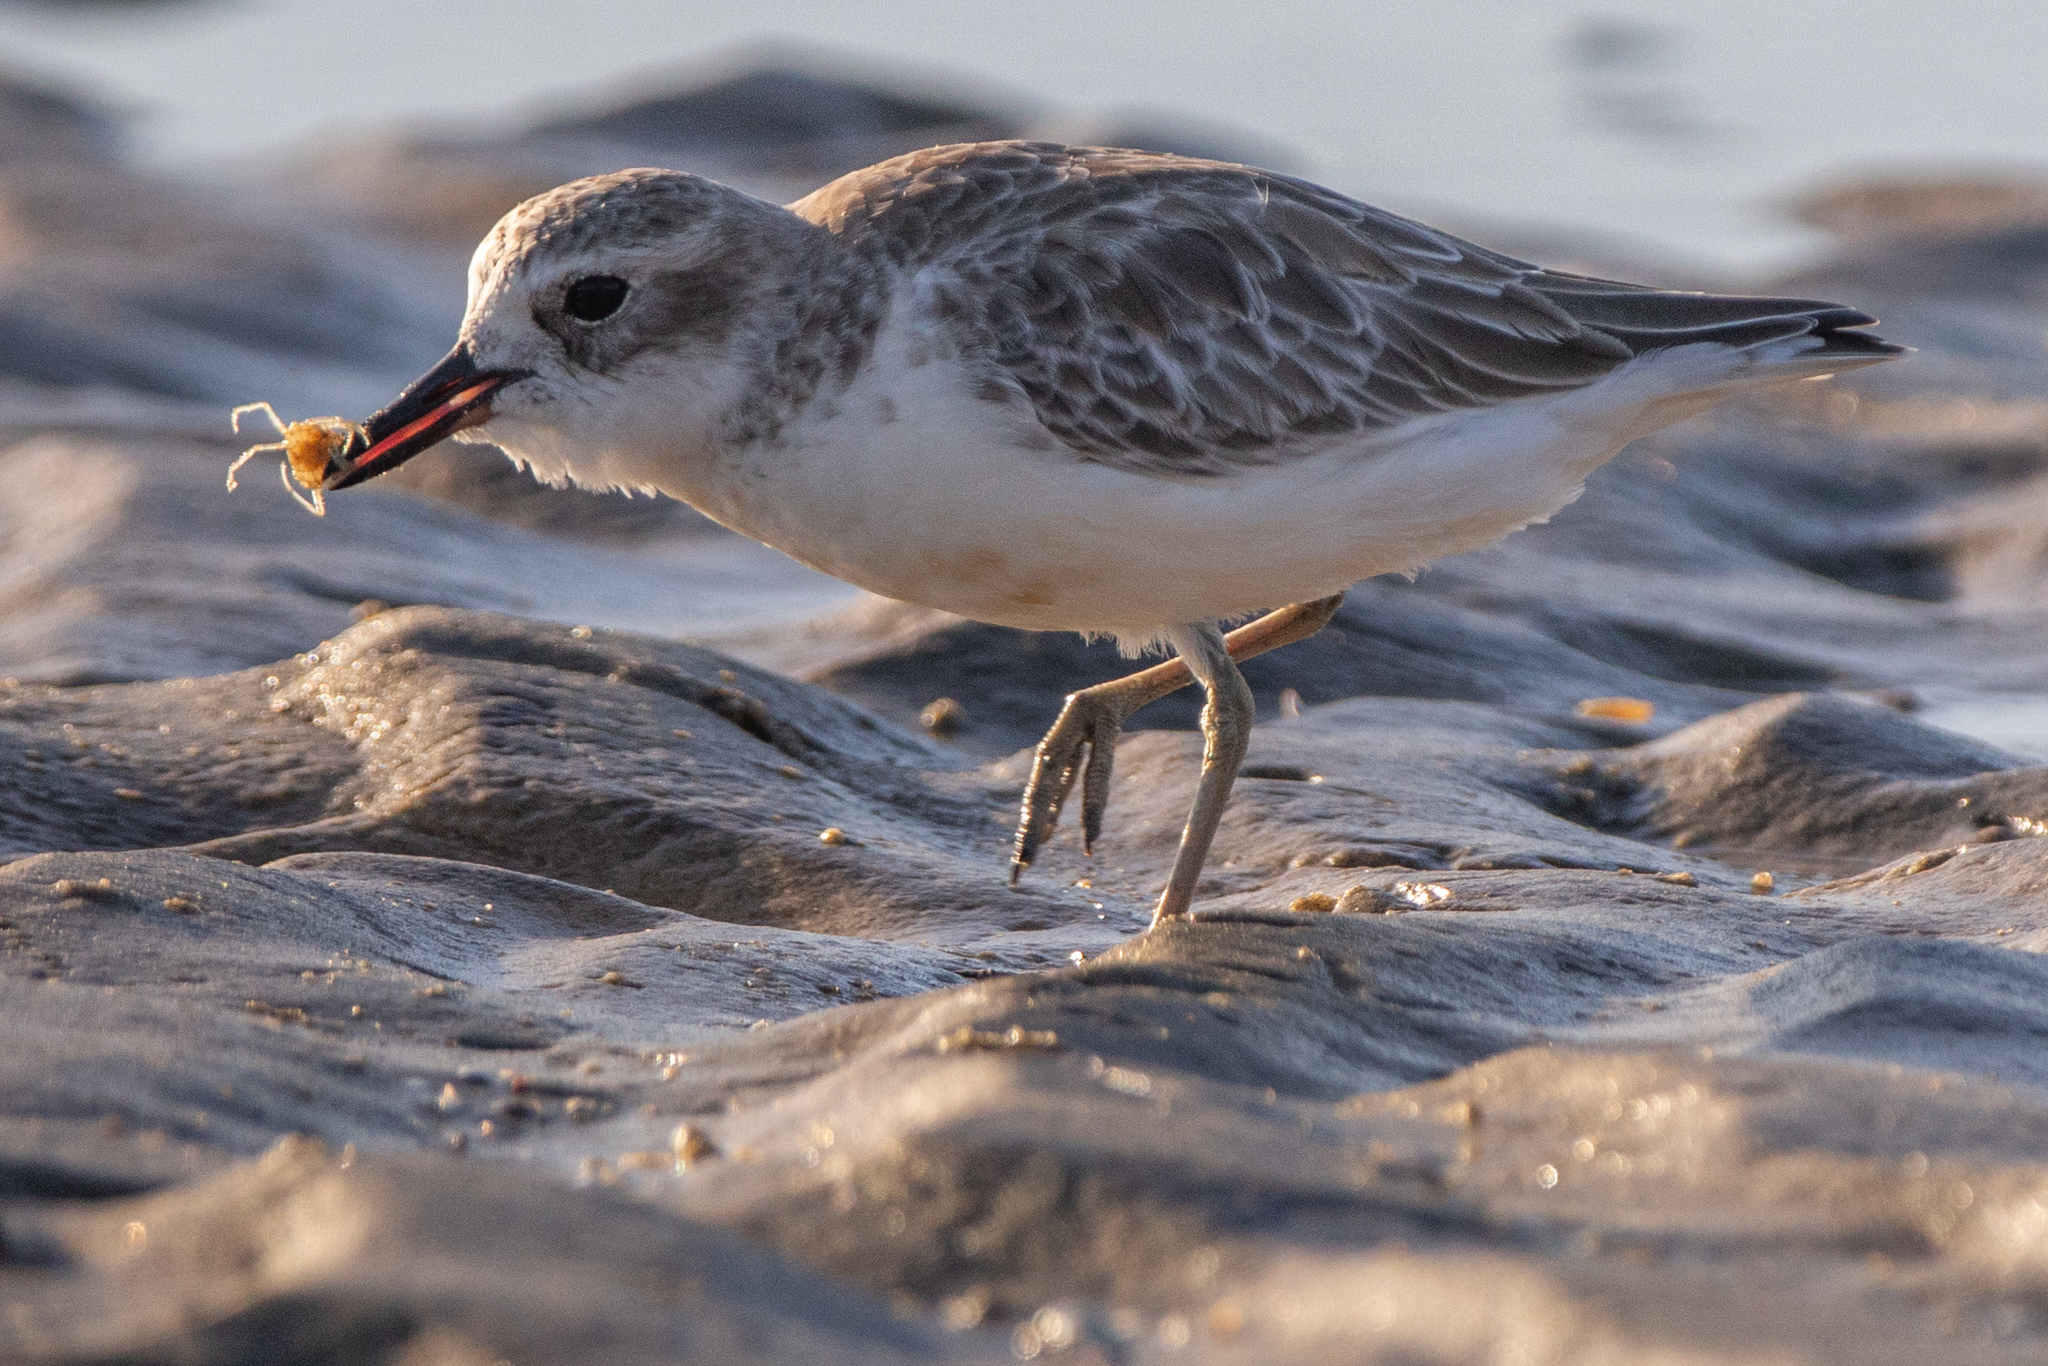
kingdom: Animalia
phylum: Arthropoda
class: Malacostraca
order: Decapoda
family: Hymenosomatidae
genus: Halicarcinus
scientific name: Halicarcinus whitei
